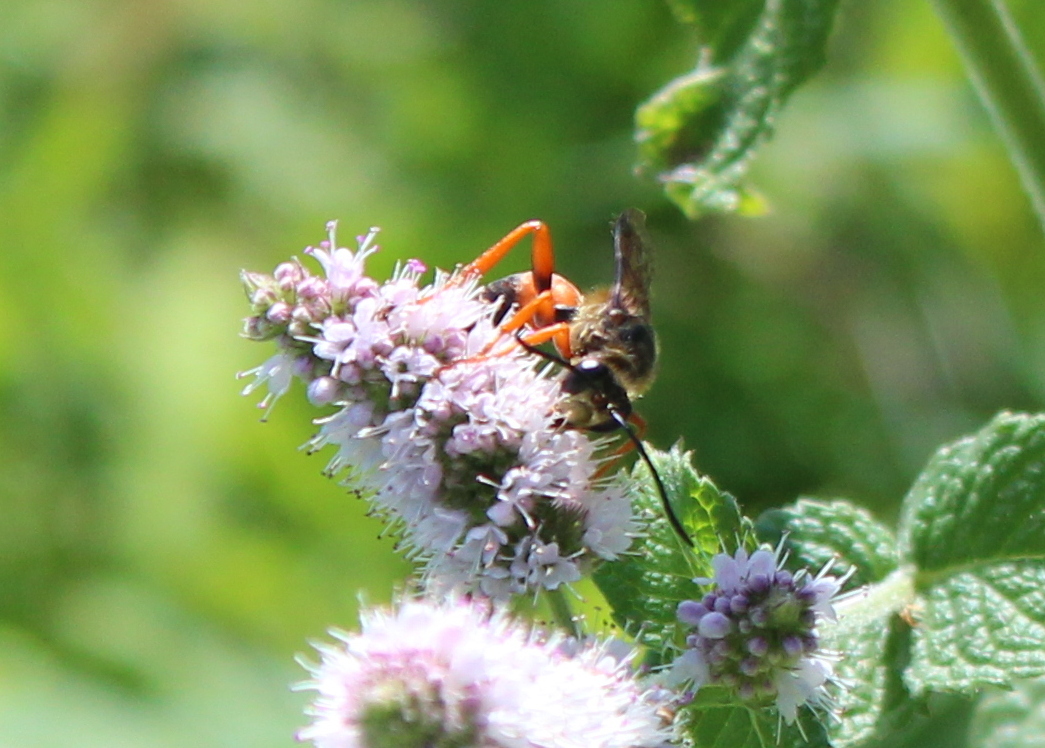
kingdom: Animalia
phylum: Arthropoda
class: Insecta
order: Hymenoptera
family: Sphecidae
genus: Sphex
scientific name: Sphex ichneumoneus
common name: Great golden digger wasp
